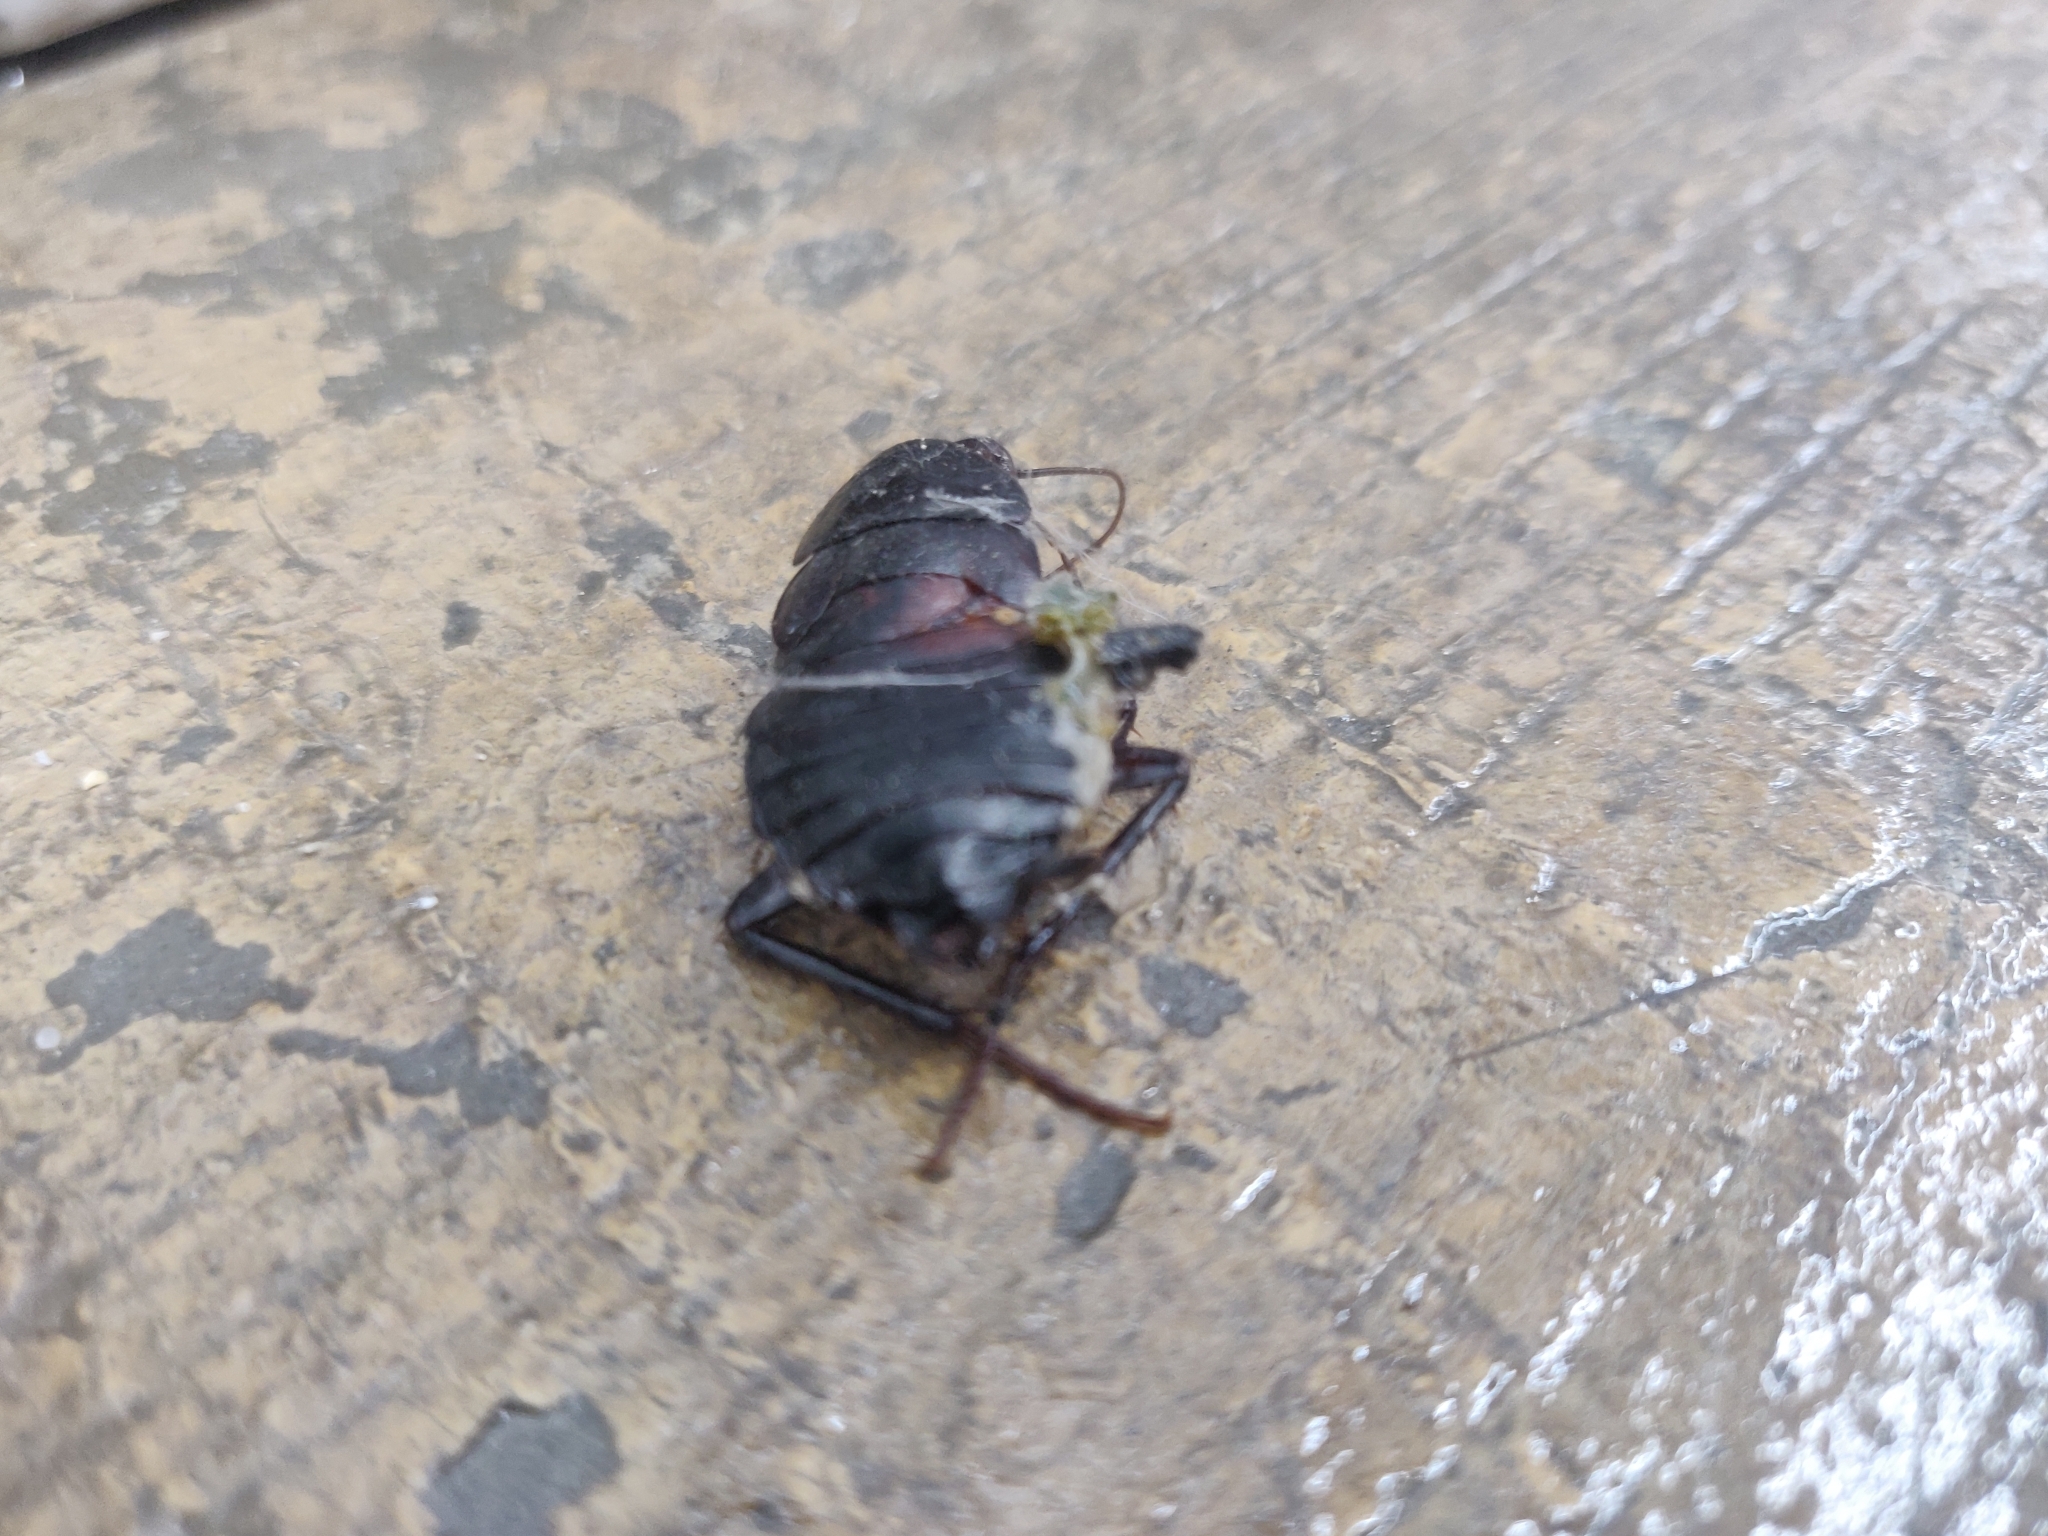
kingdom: Animalia
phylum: Arthropoda
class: Insecta
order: Blattodea
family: Blattidae
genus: Blatta
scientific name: Blatta orientalis
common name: Oriental cockroach
